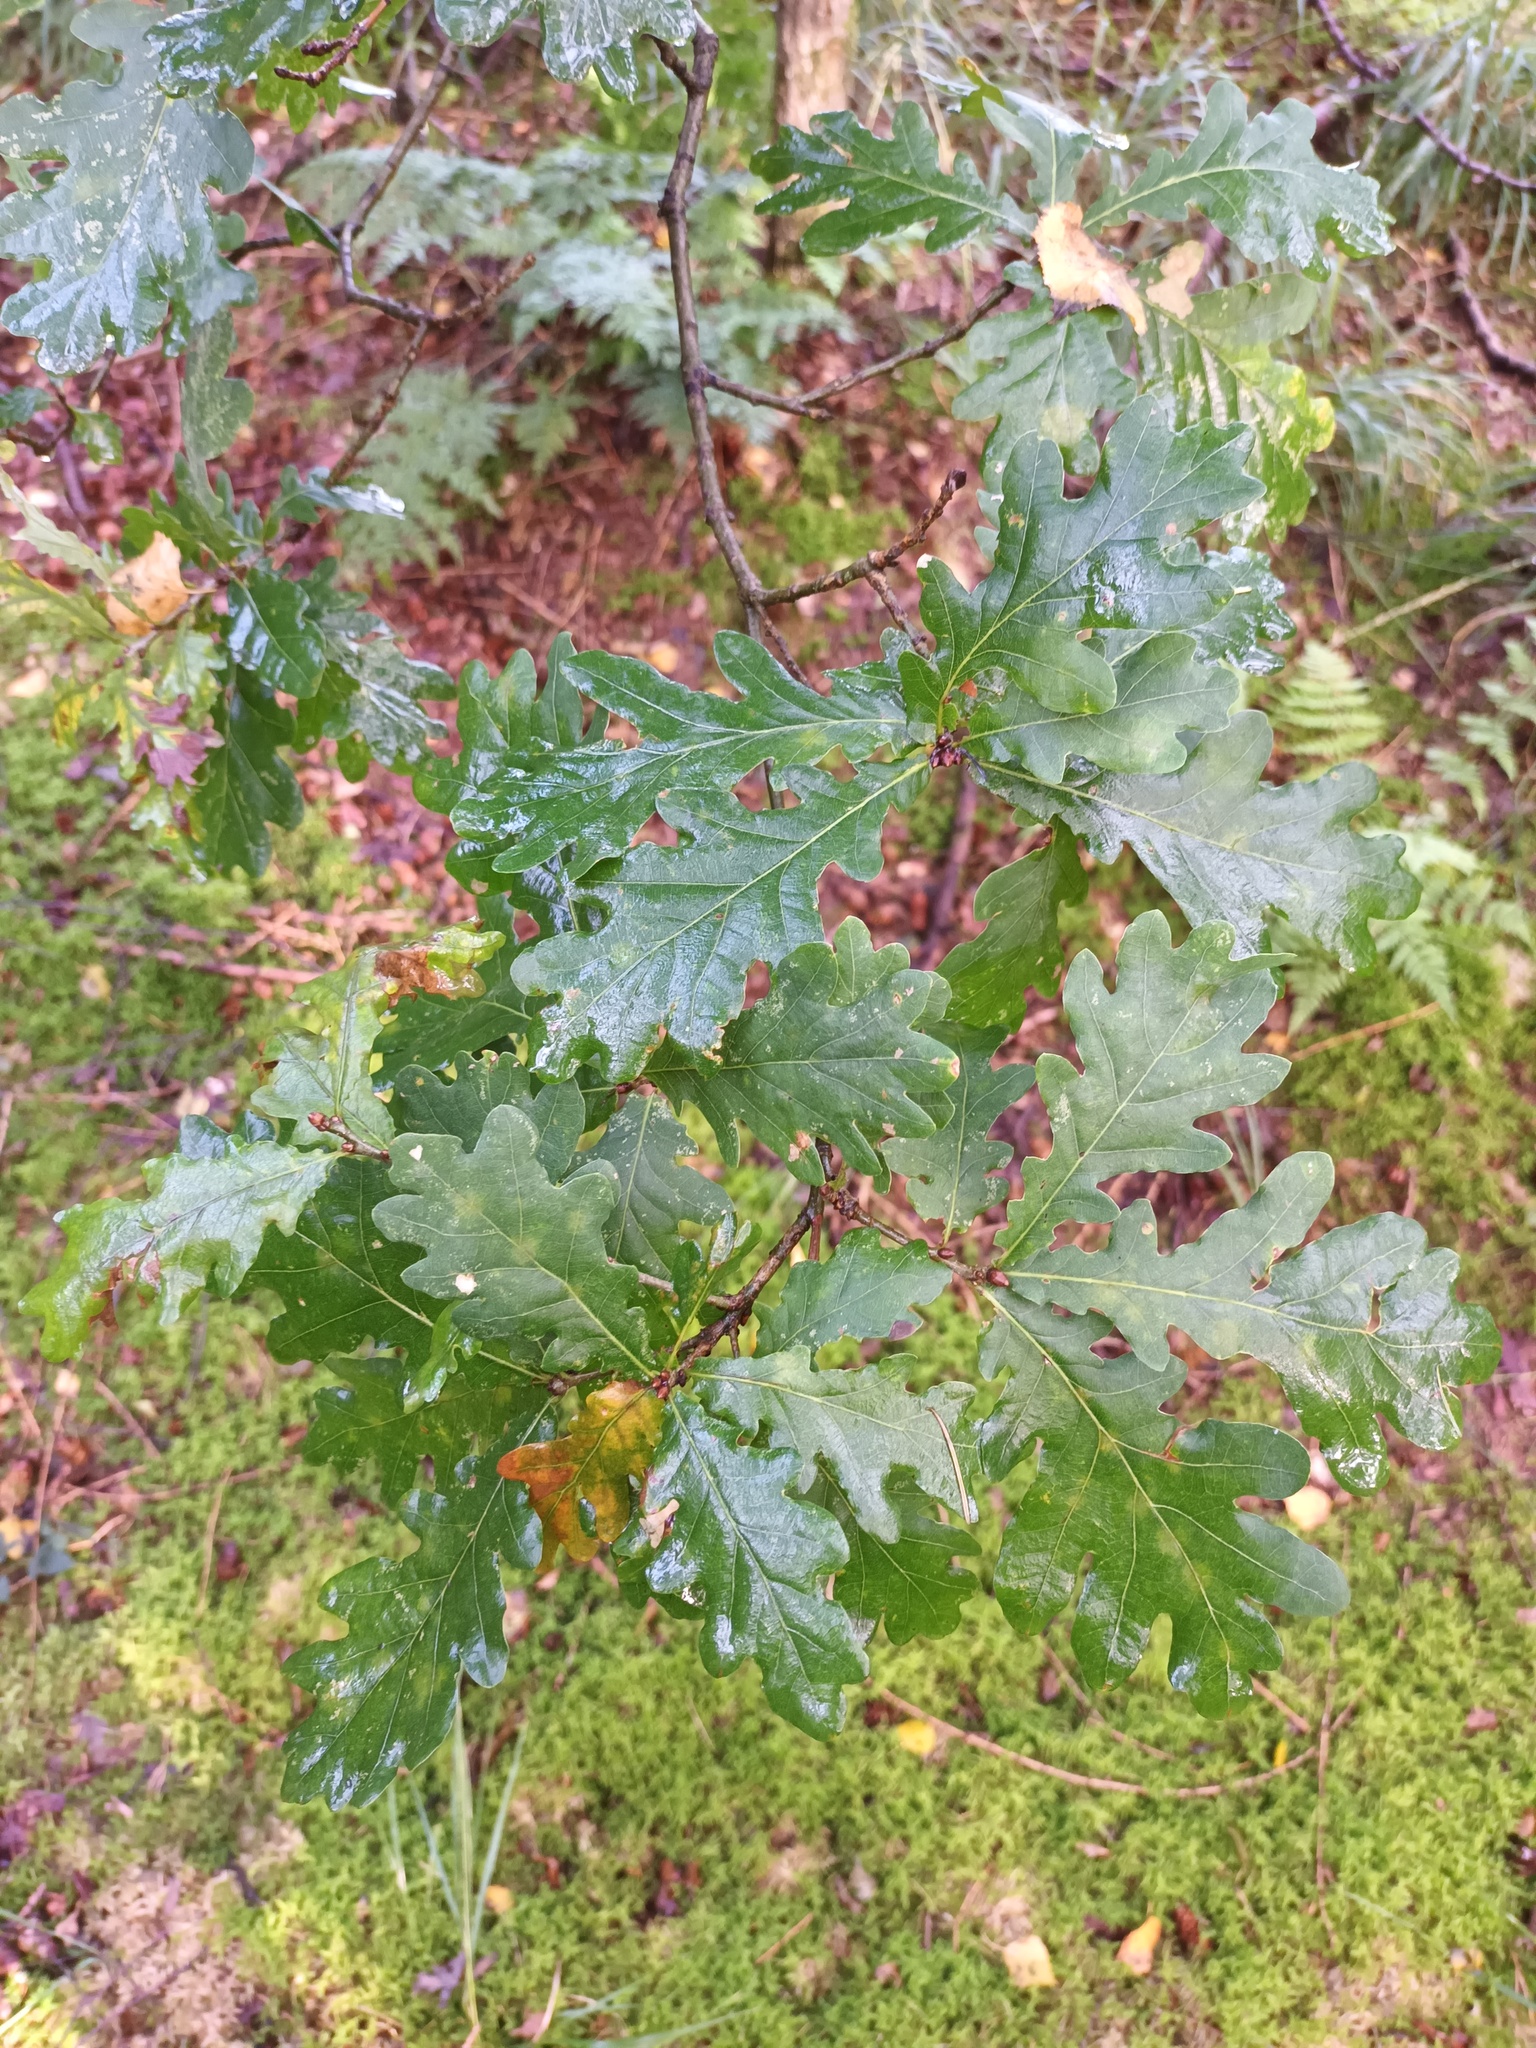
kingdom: Plantae
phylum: Tracheophyta
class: Magnoliopsida
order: Fagales
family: Fagaceae
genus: Quercus
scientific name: Quercus robur
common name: Pedunculate oak
